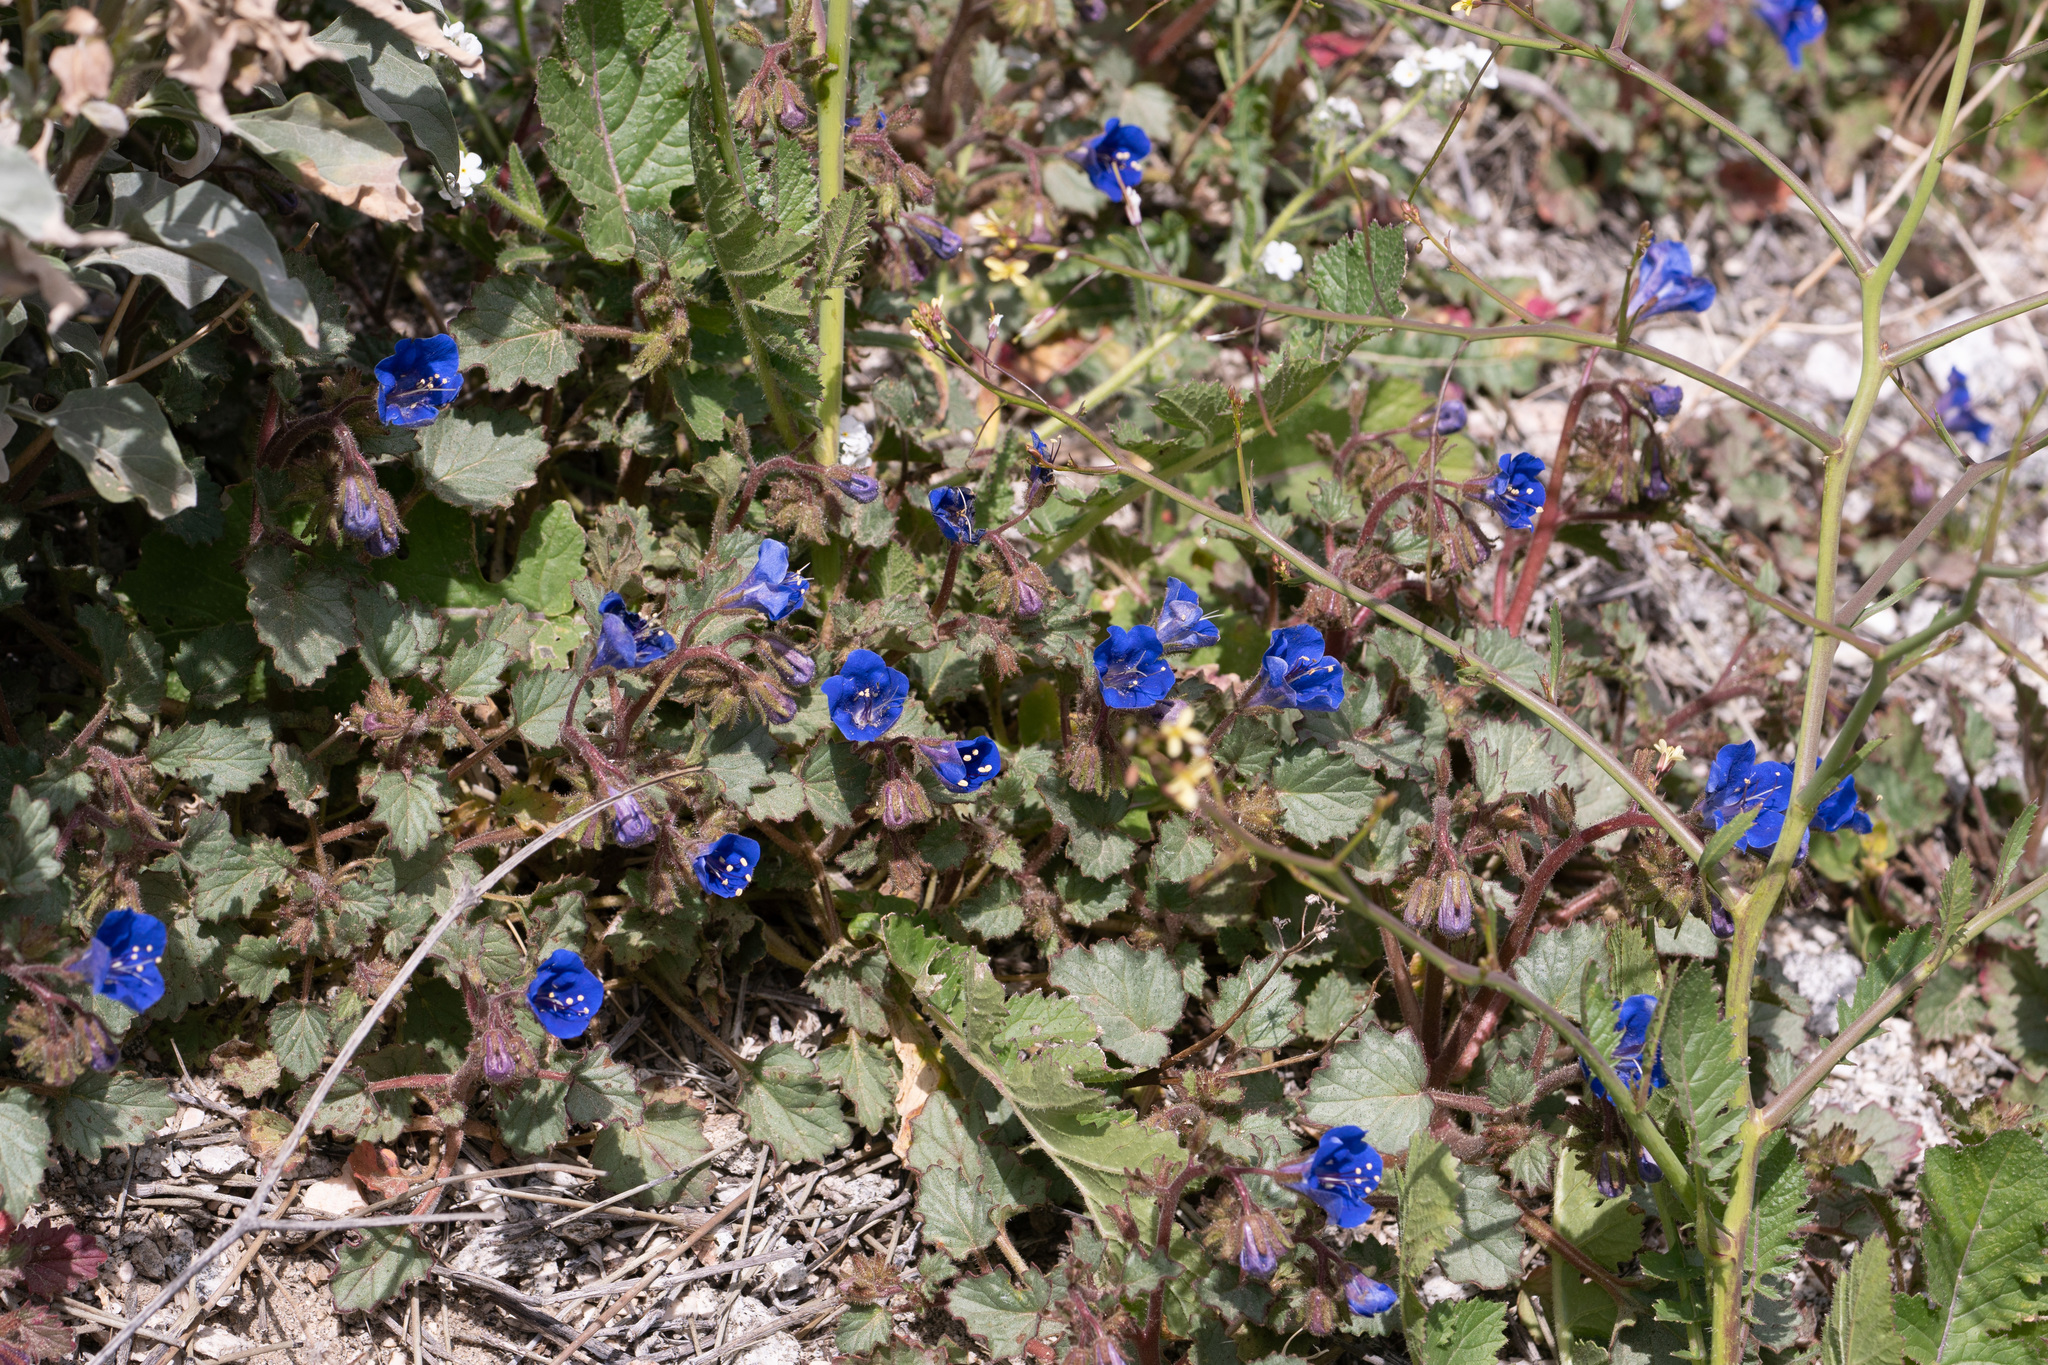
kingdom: Plantae
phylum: Tracheophyta
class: Magnoliopsida
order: Boraginales
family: Hydrophyllaceae
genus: Phacelia
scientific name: Phacelia campanularia
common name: California bluebell
